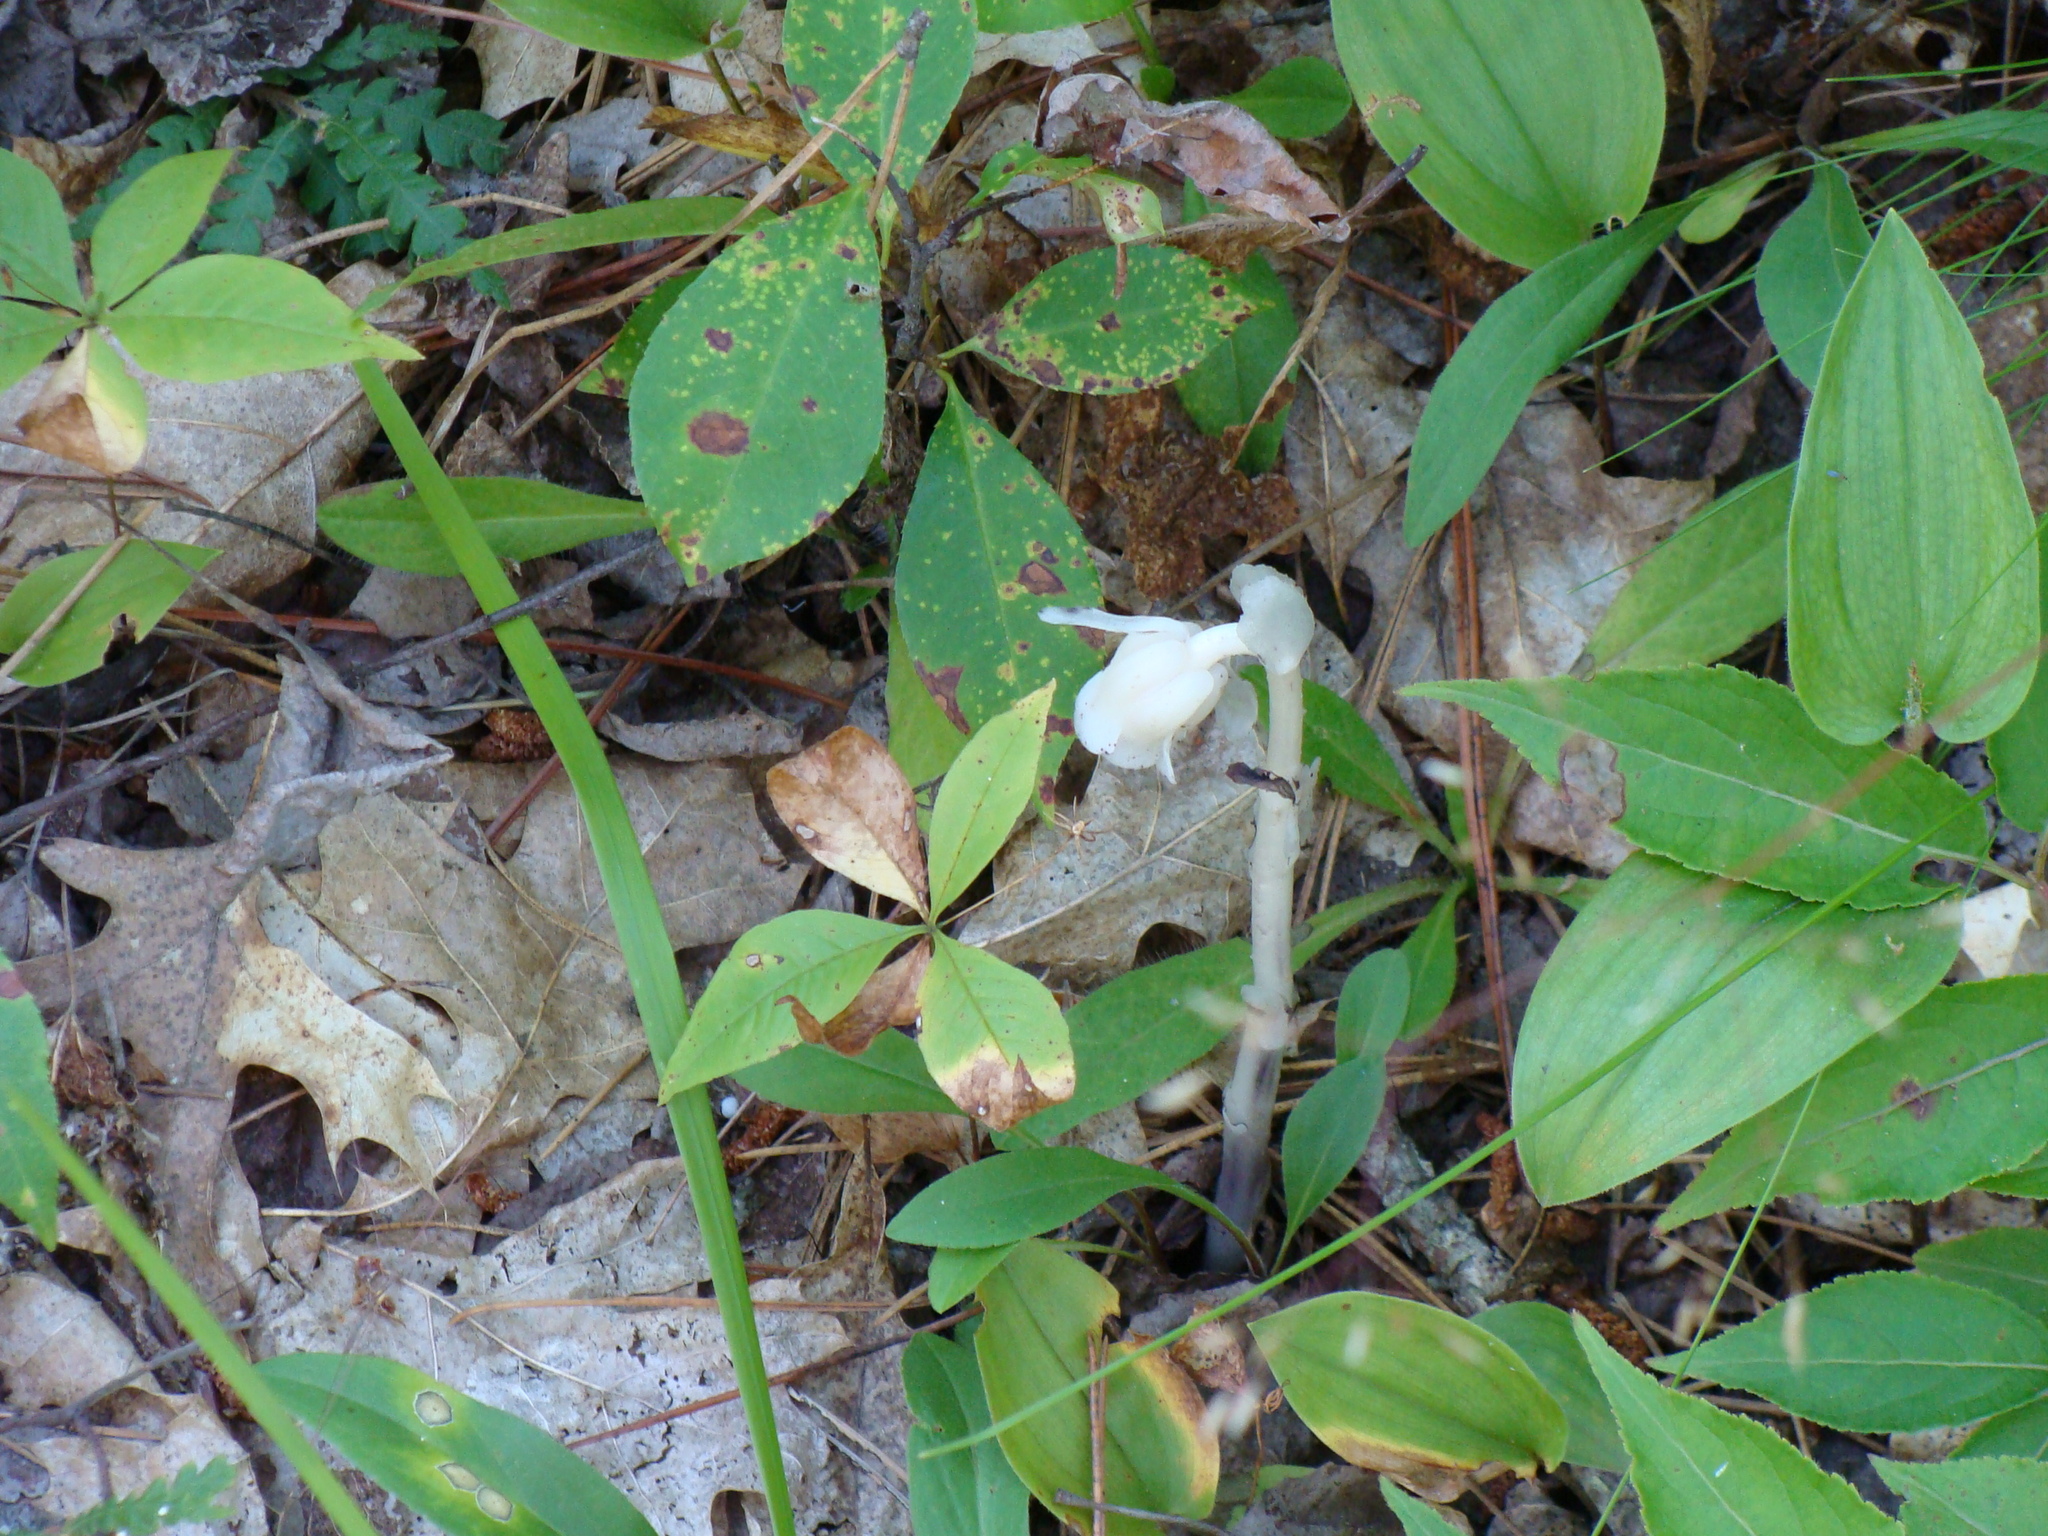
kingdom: Plantae
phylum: Tracheophyta
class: Magnoliopsida
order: Ericales
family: Ericaceae
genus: Monotropa
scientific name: Monotropa uniflora
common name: Convulsion root
